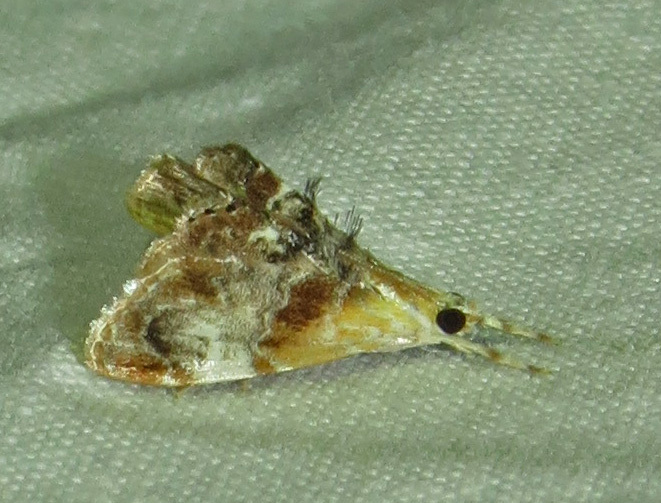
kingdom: Animalia
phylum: Arthropoda
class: Insecta
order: Lepidoptera
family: Crambidae
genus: Dicymolomia
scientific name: Dicymolomia julianalis
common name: Julia's dicymolomia moth
